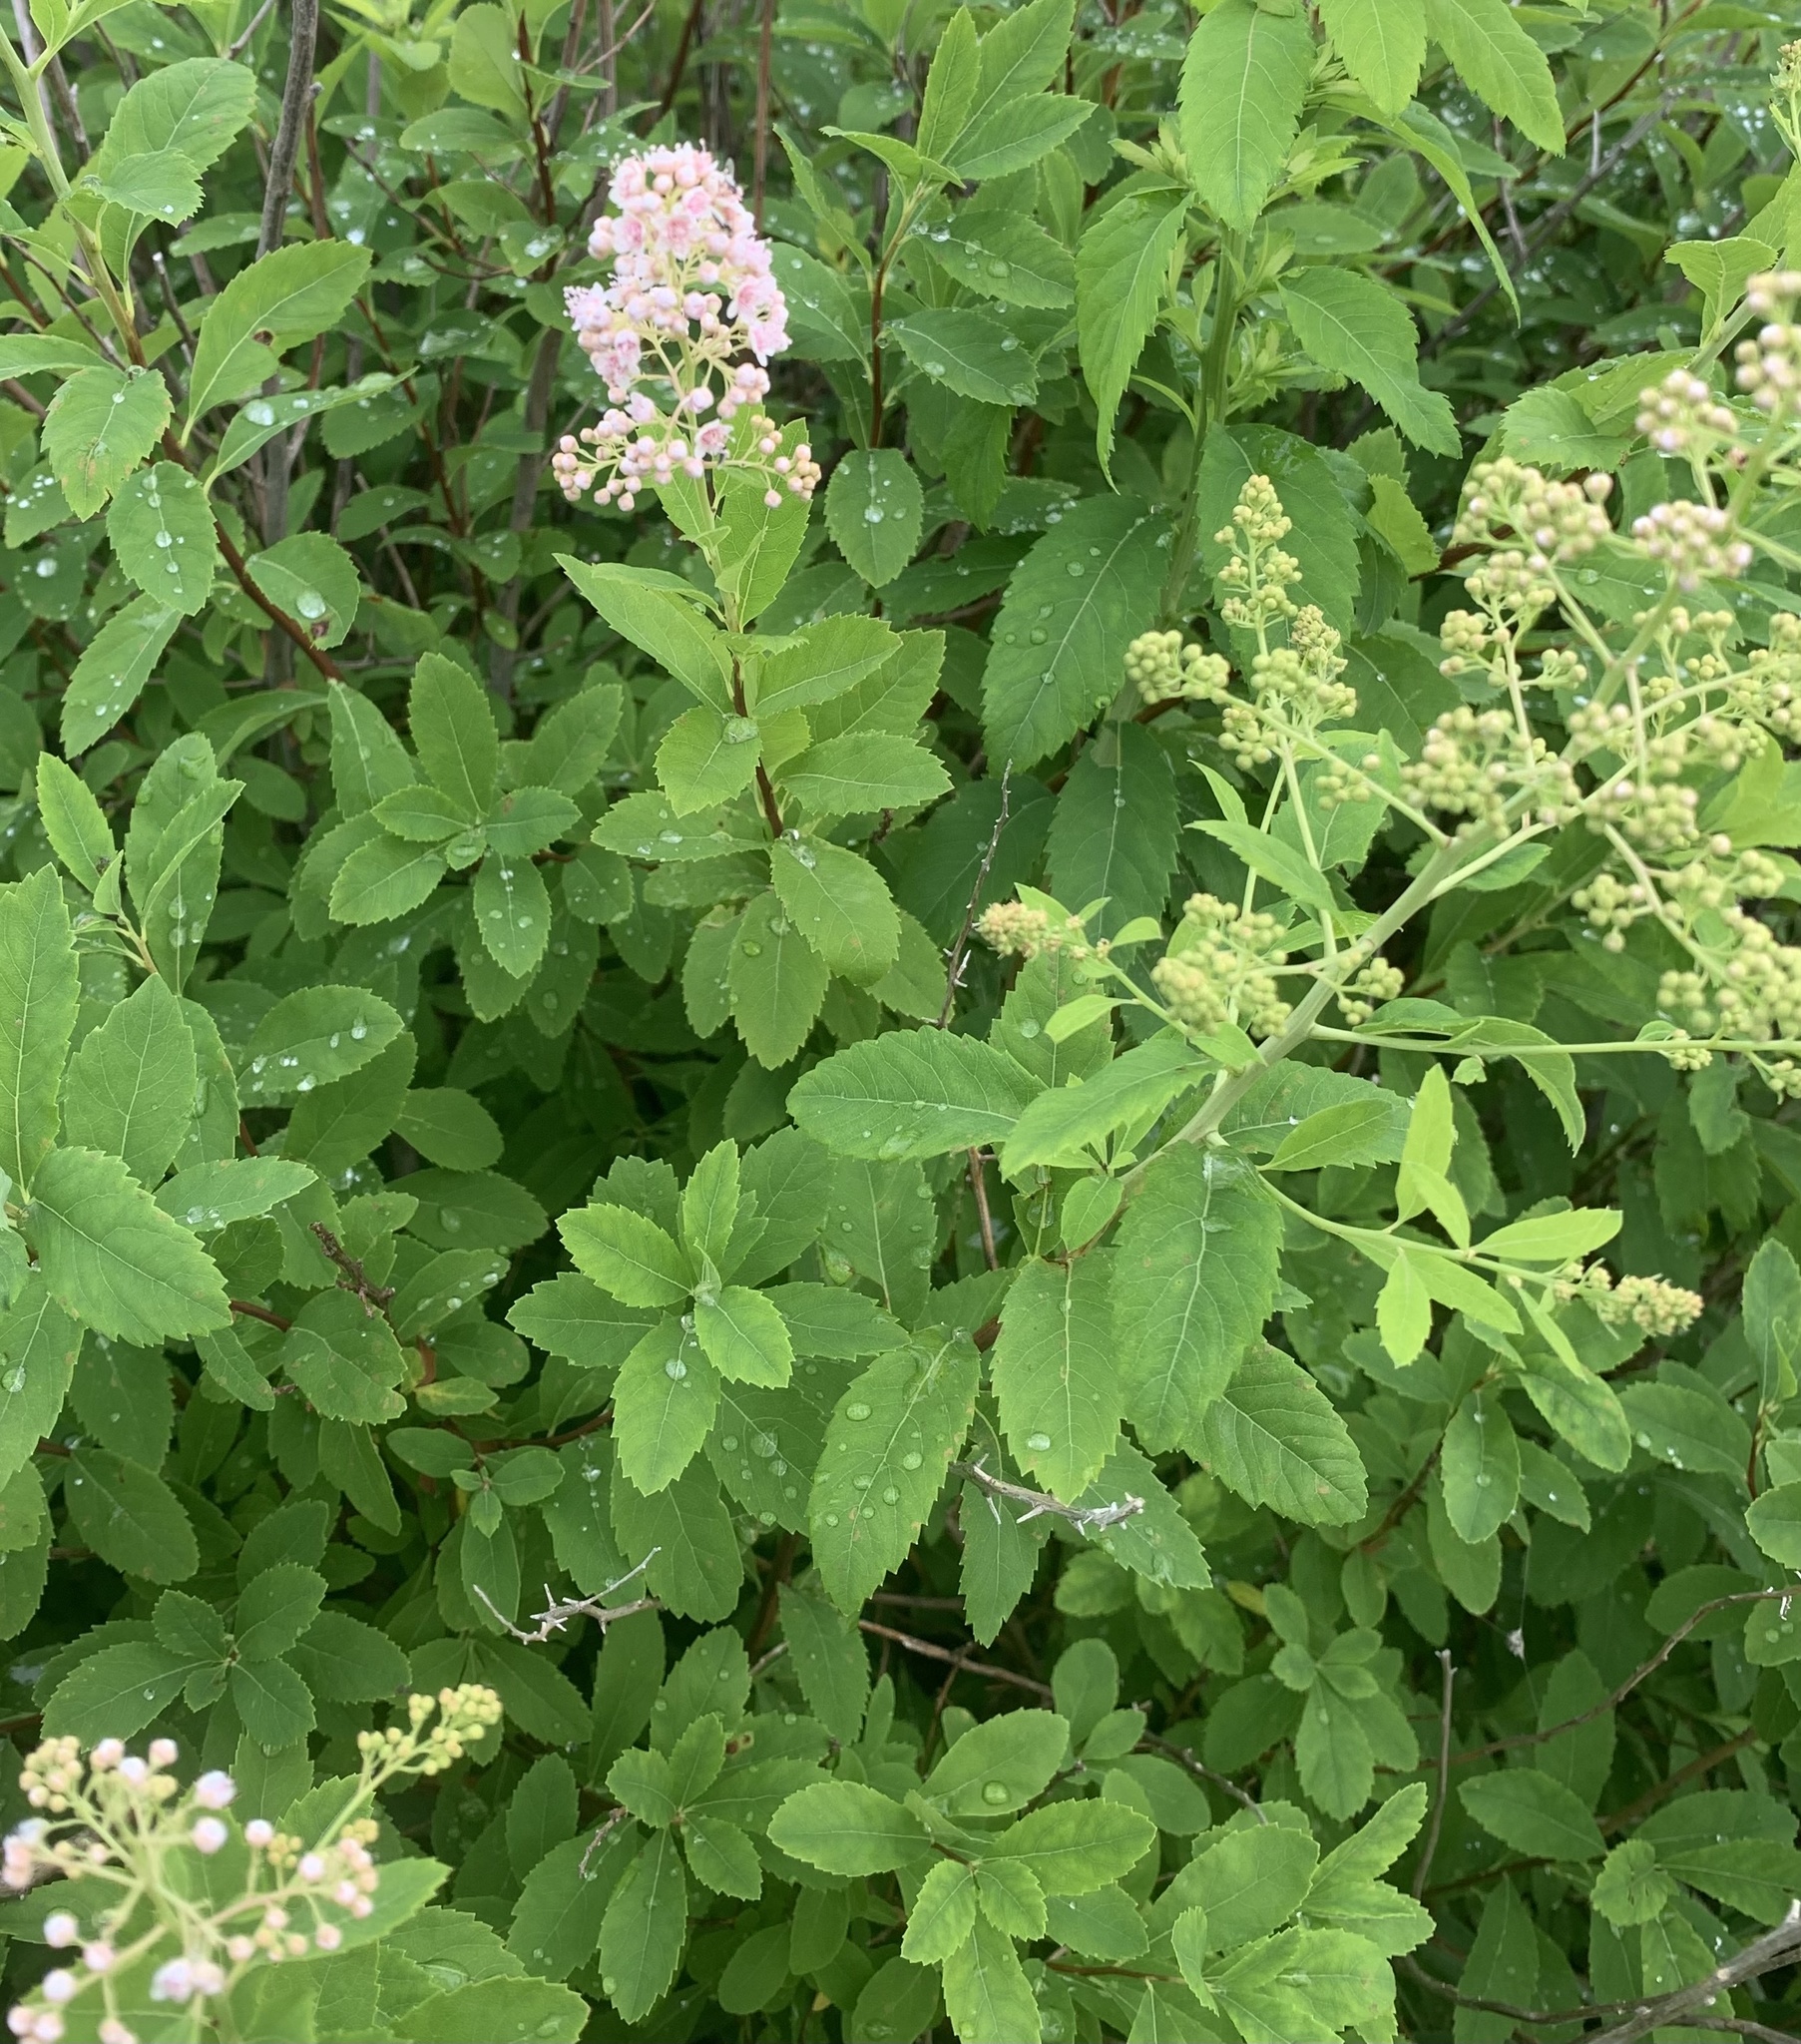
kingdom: Plantae
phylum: Tracheophyta
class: Magnoliopsida
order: Rosales
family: Rosaceae
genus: Spiraea
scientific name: Spiraea alba
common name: Pale bridewort
